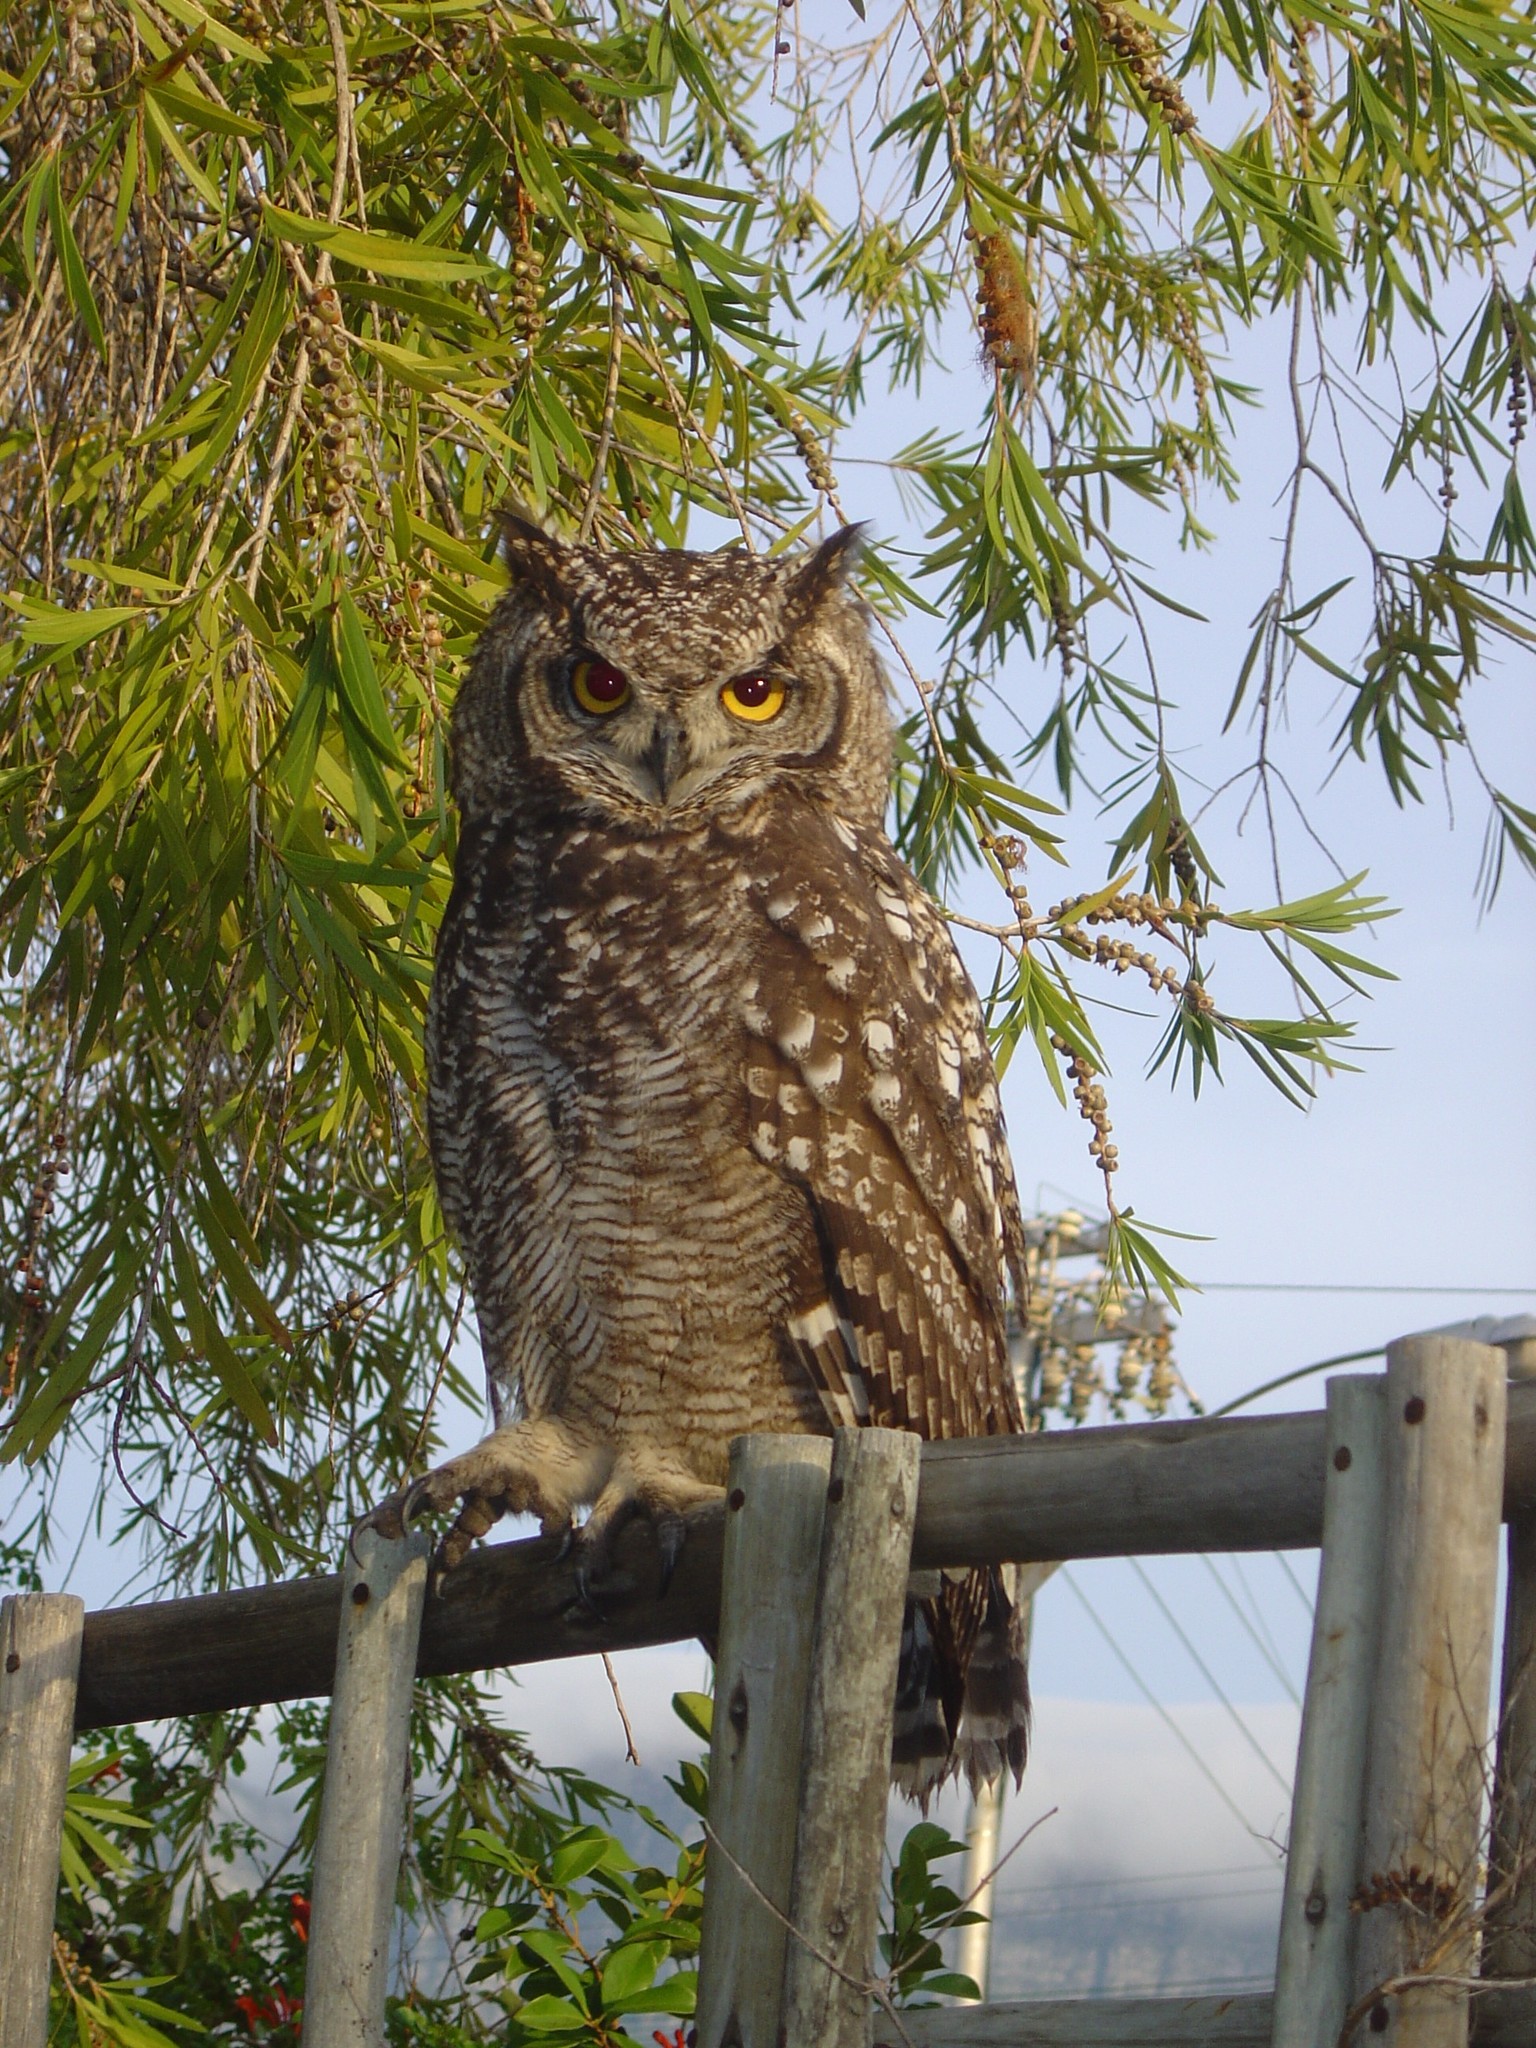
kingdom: Animalia
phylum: Chordata
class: Aves
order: Strigiformes
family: Strigidae
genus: Bubo
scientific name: Bubo africanus
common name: Spotted eagle-owl
